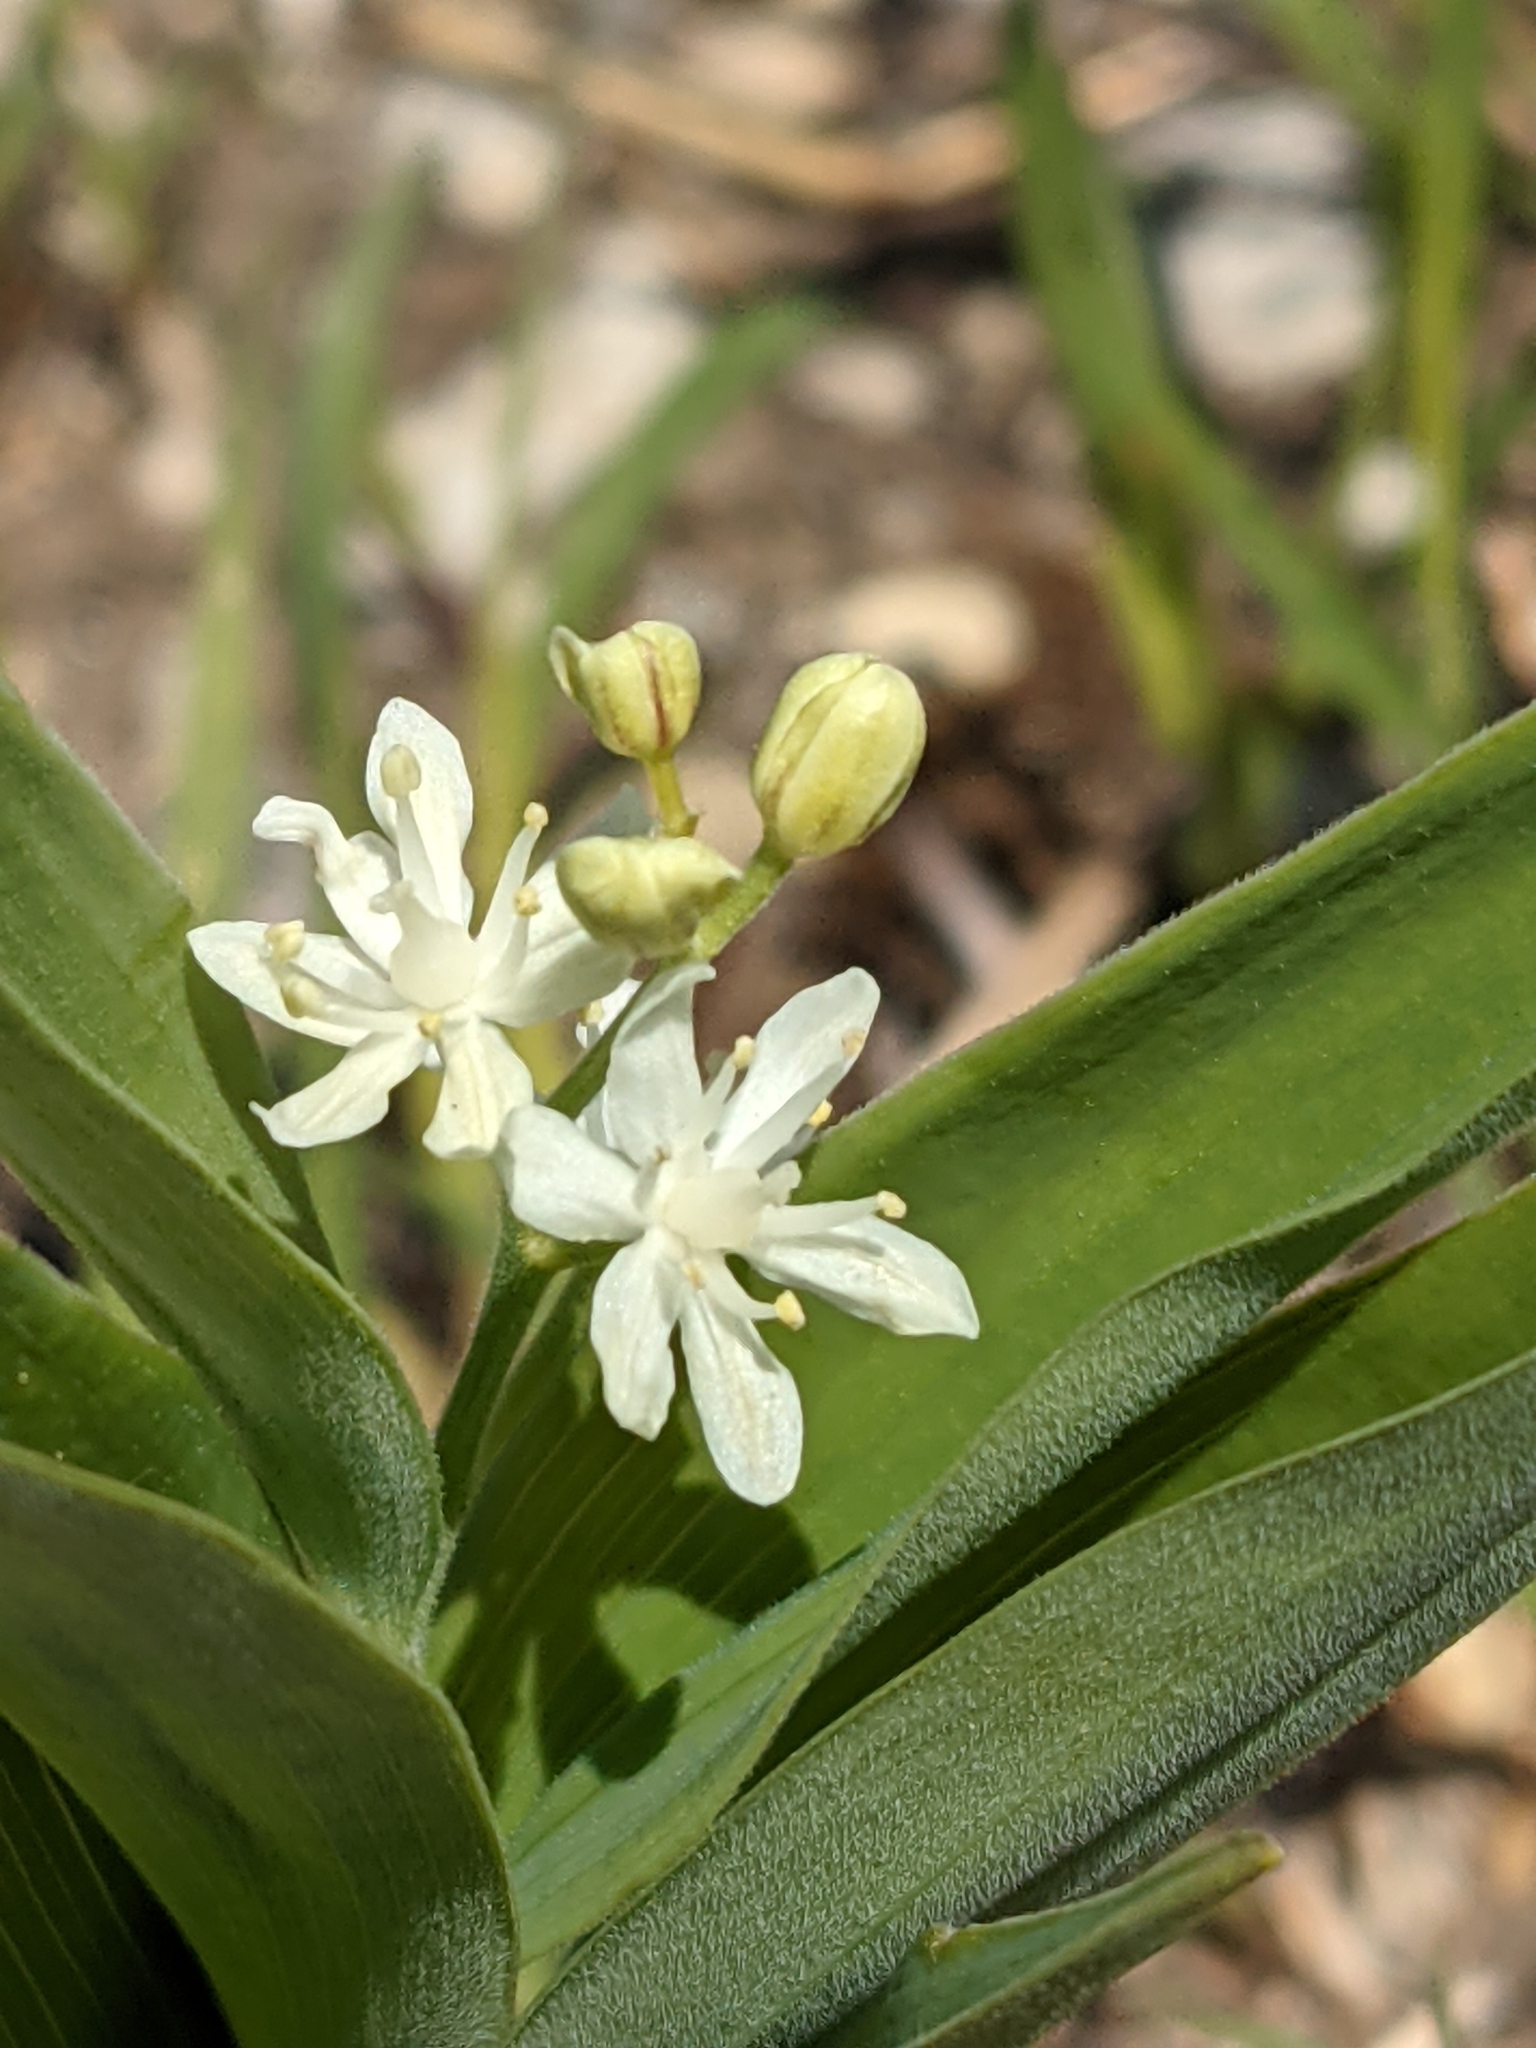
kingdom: Plantae
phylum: Tracheophyta
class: Liliopsida
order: Asparagales
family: Asparagaceae
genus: Maianthemum
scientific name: Maianthemum stellatum
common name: Little false solomon's seal
